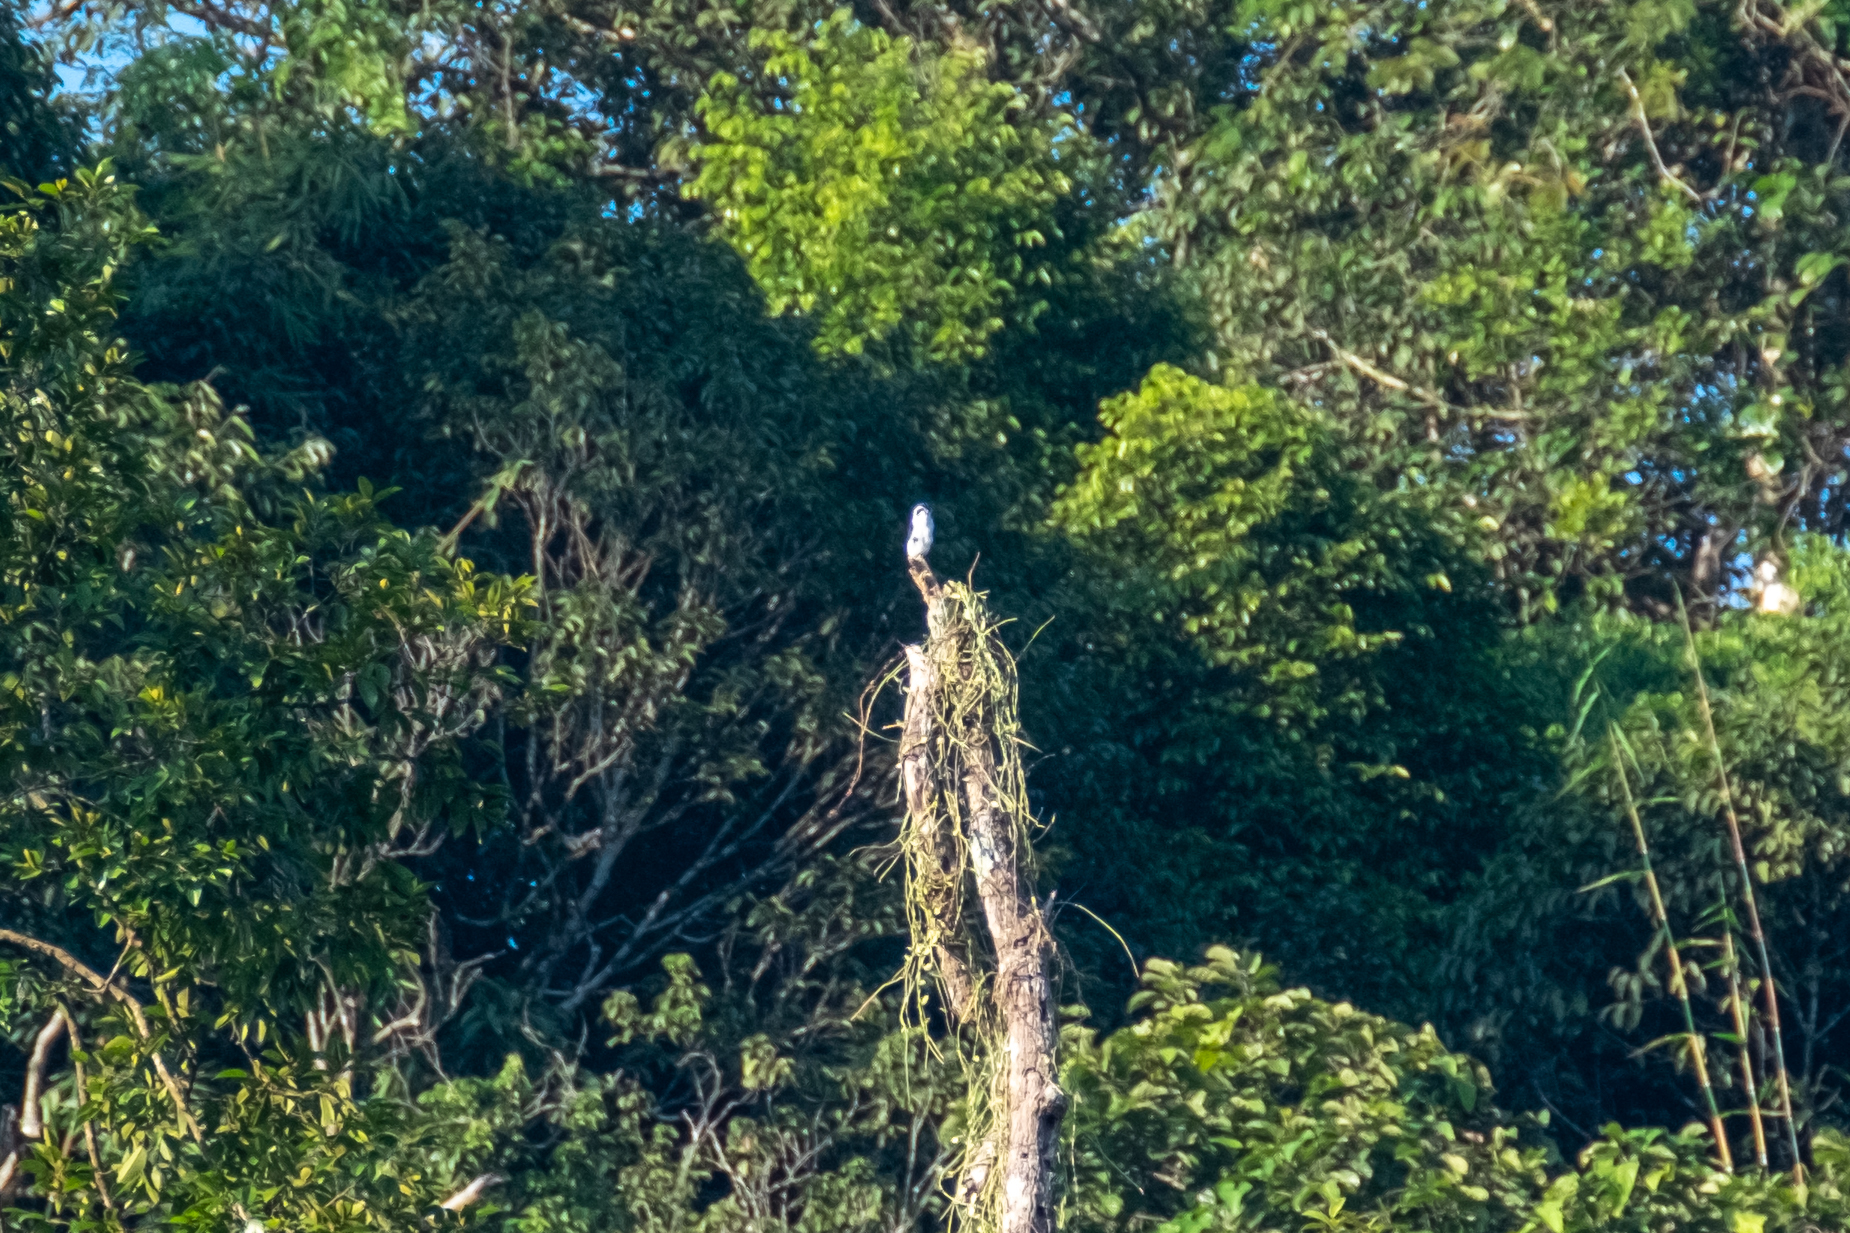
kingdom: Animalia
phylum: Chordata
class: Aves
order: Falconiformes
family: Falconidae
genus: Microhierax
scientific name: Microhierax melanoleucos
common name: Pied falconet
